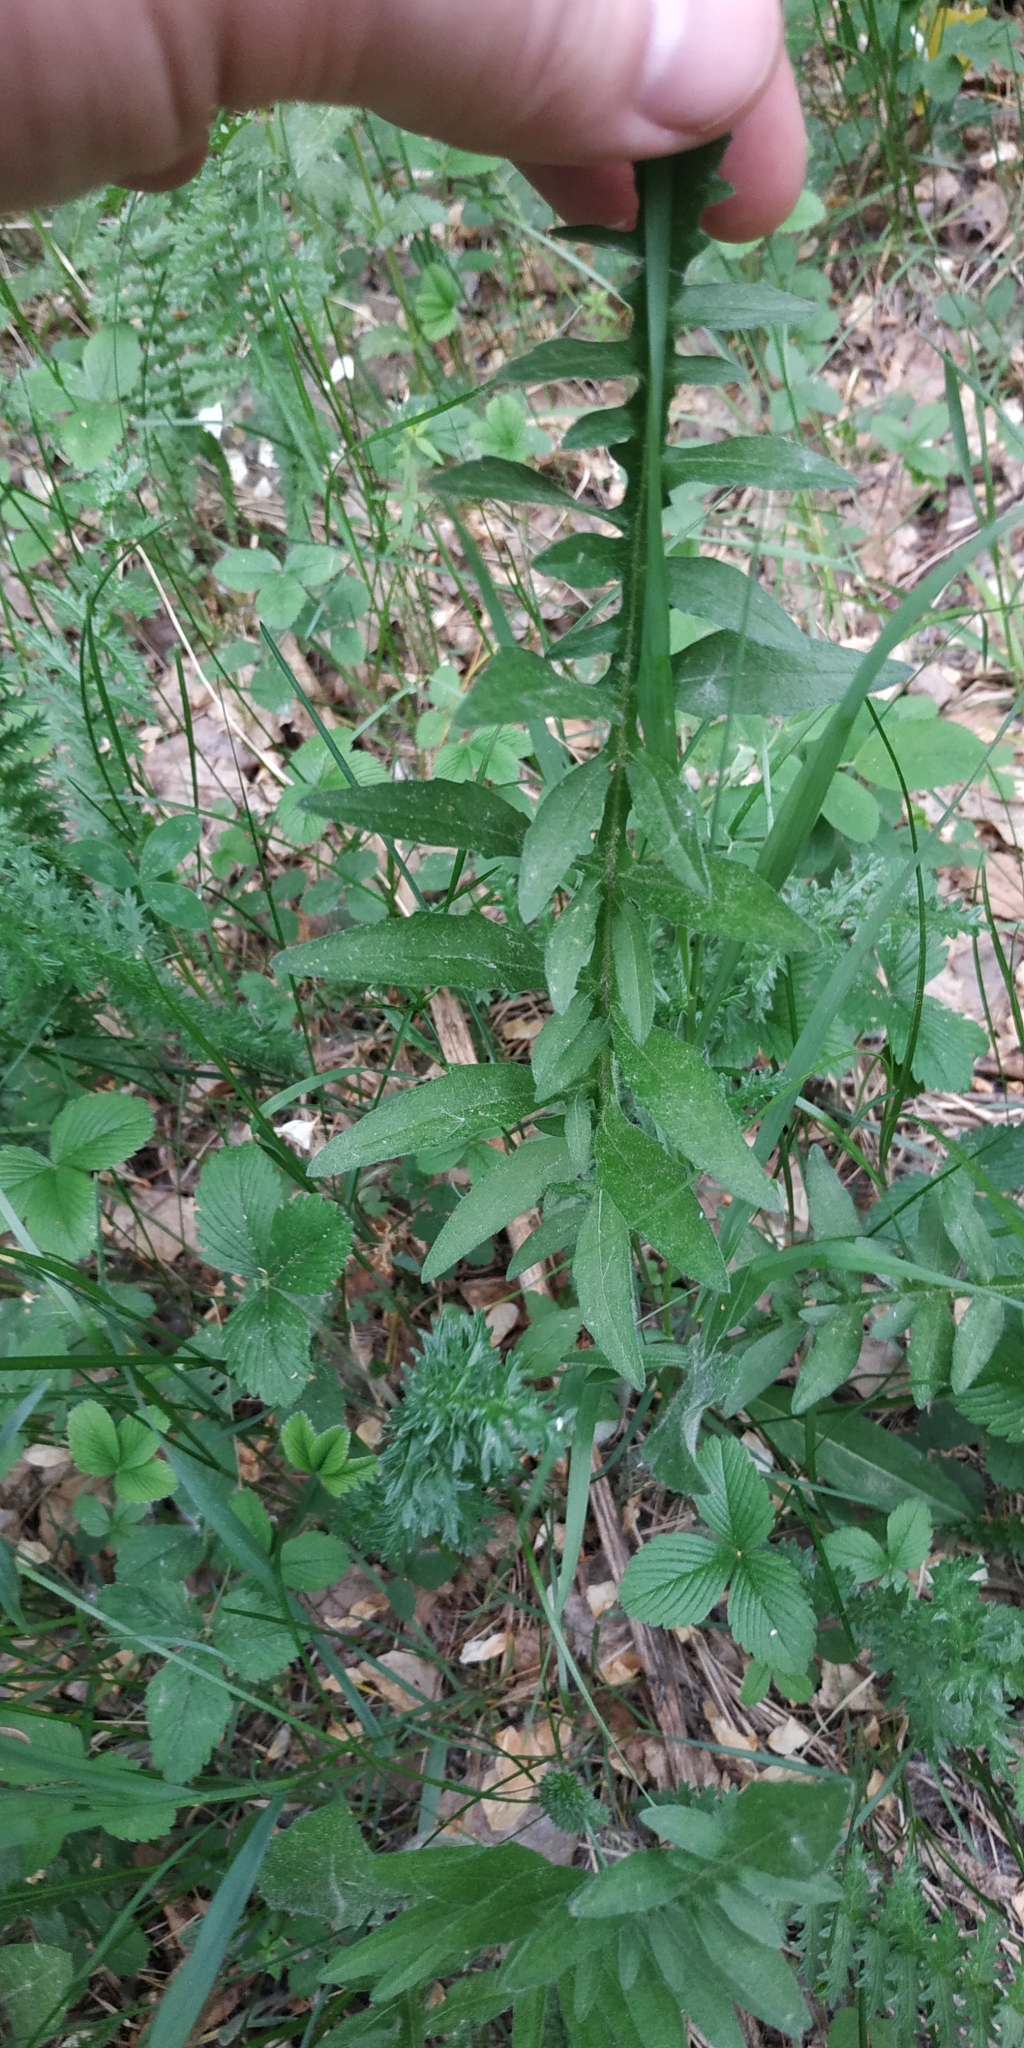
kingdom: Plantae
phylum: Tracheophyta
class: Magnoliopsida
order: Asterales
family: Asteraceae
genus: Centaurea
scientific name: Centaurea scabiosa
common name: Greater knapweed
